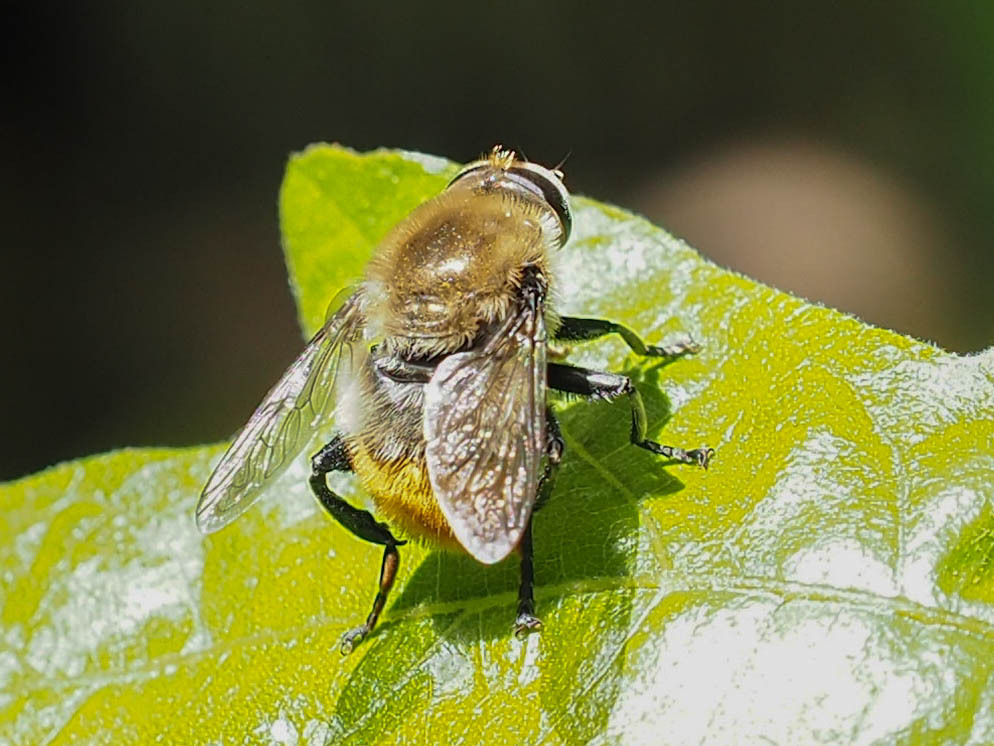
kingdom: Animalia
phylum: Arthropoda
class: Insecta
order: Diptera
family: Syrphidae
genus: Merodon
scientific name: Merodon equestris
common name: Greater bulb-fly
